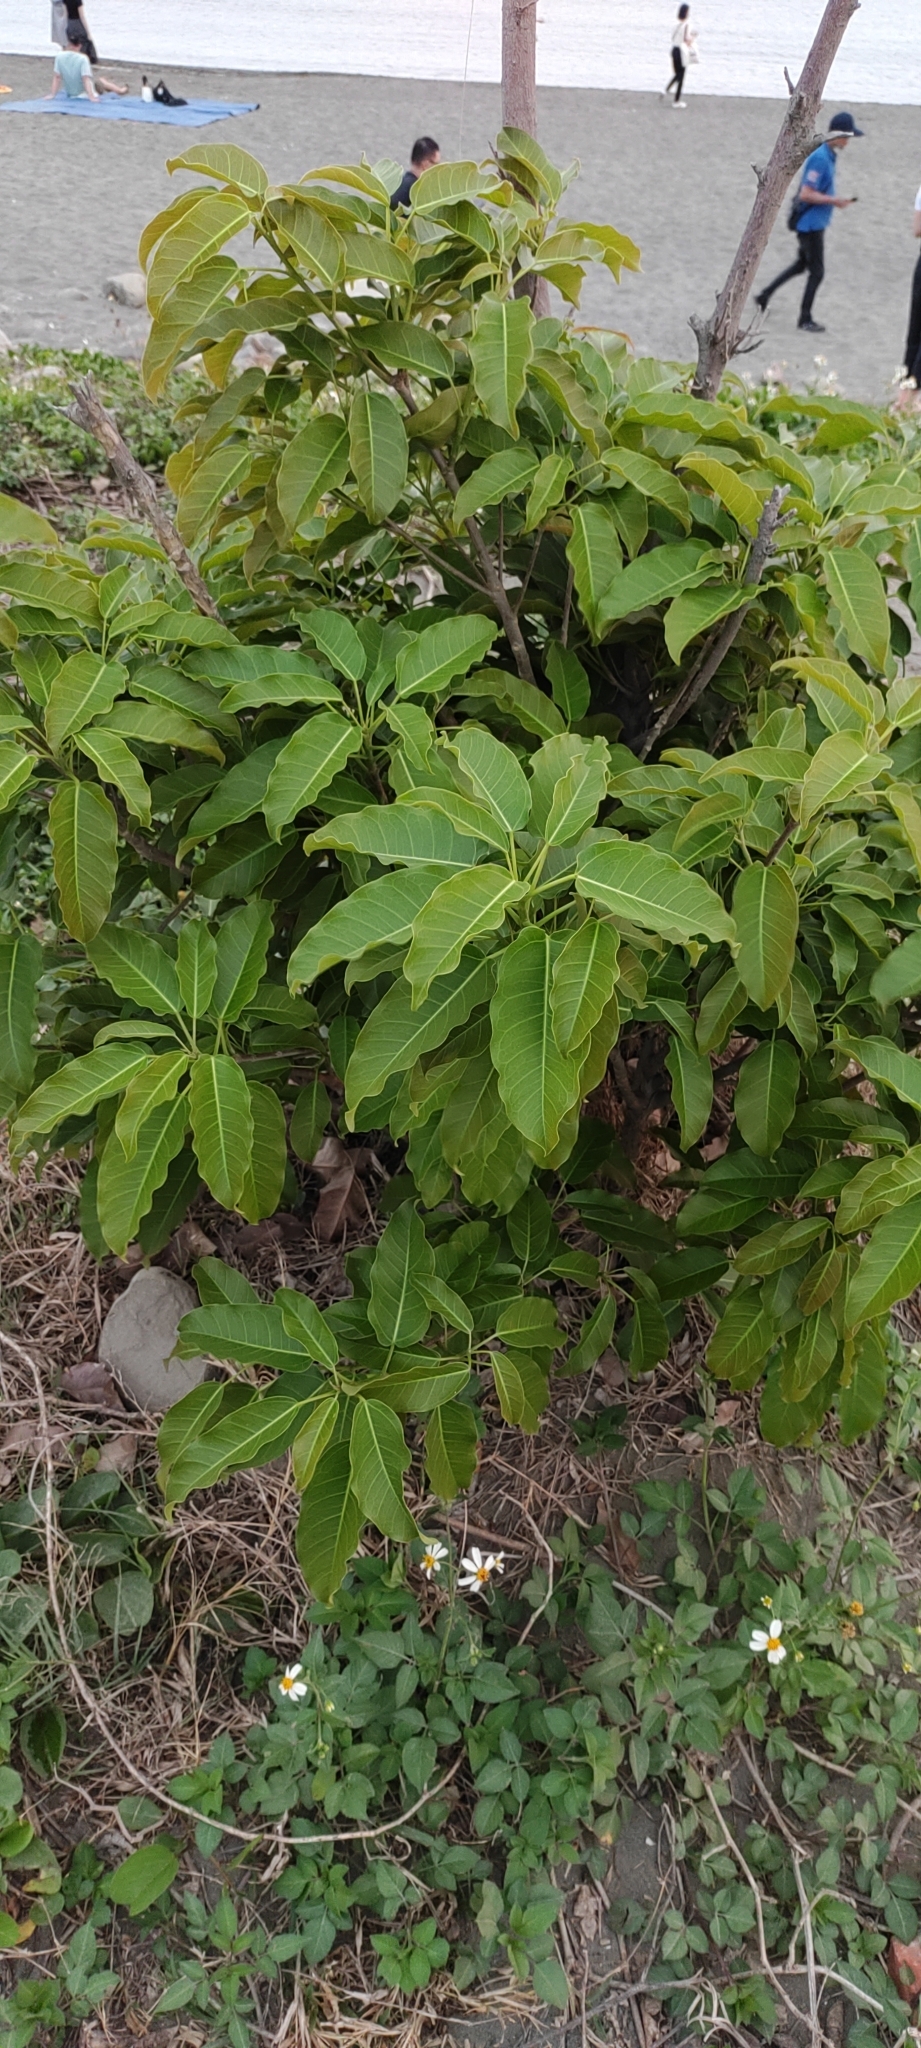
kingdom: Plantae
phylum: Tracheophyta
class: Magnoliopsida
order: Rosales
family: Moraceae
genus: Ficus
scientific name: Ficus subpisocarpa
